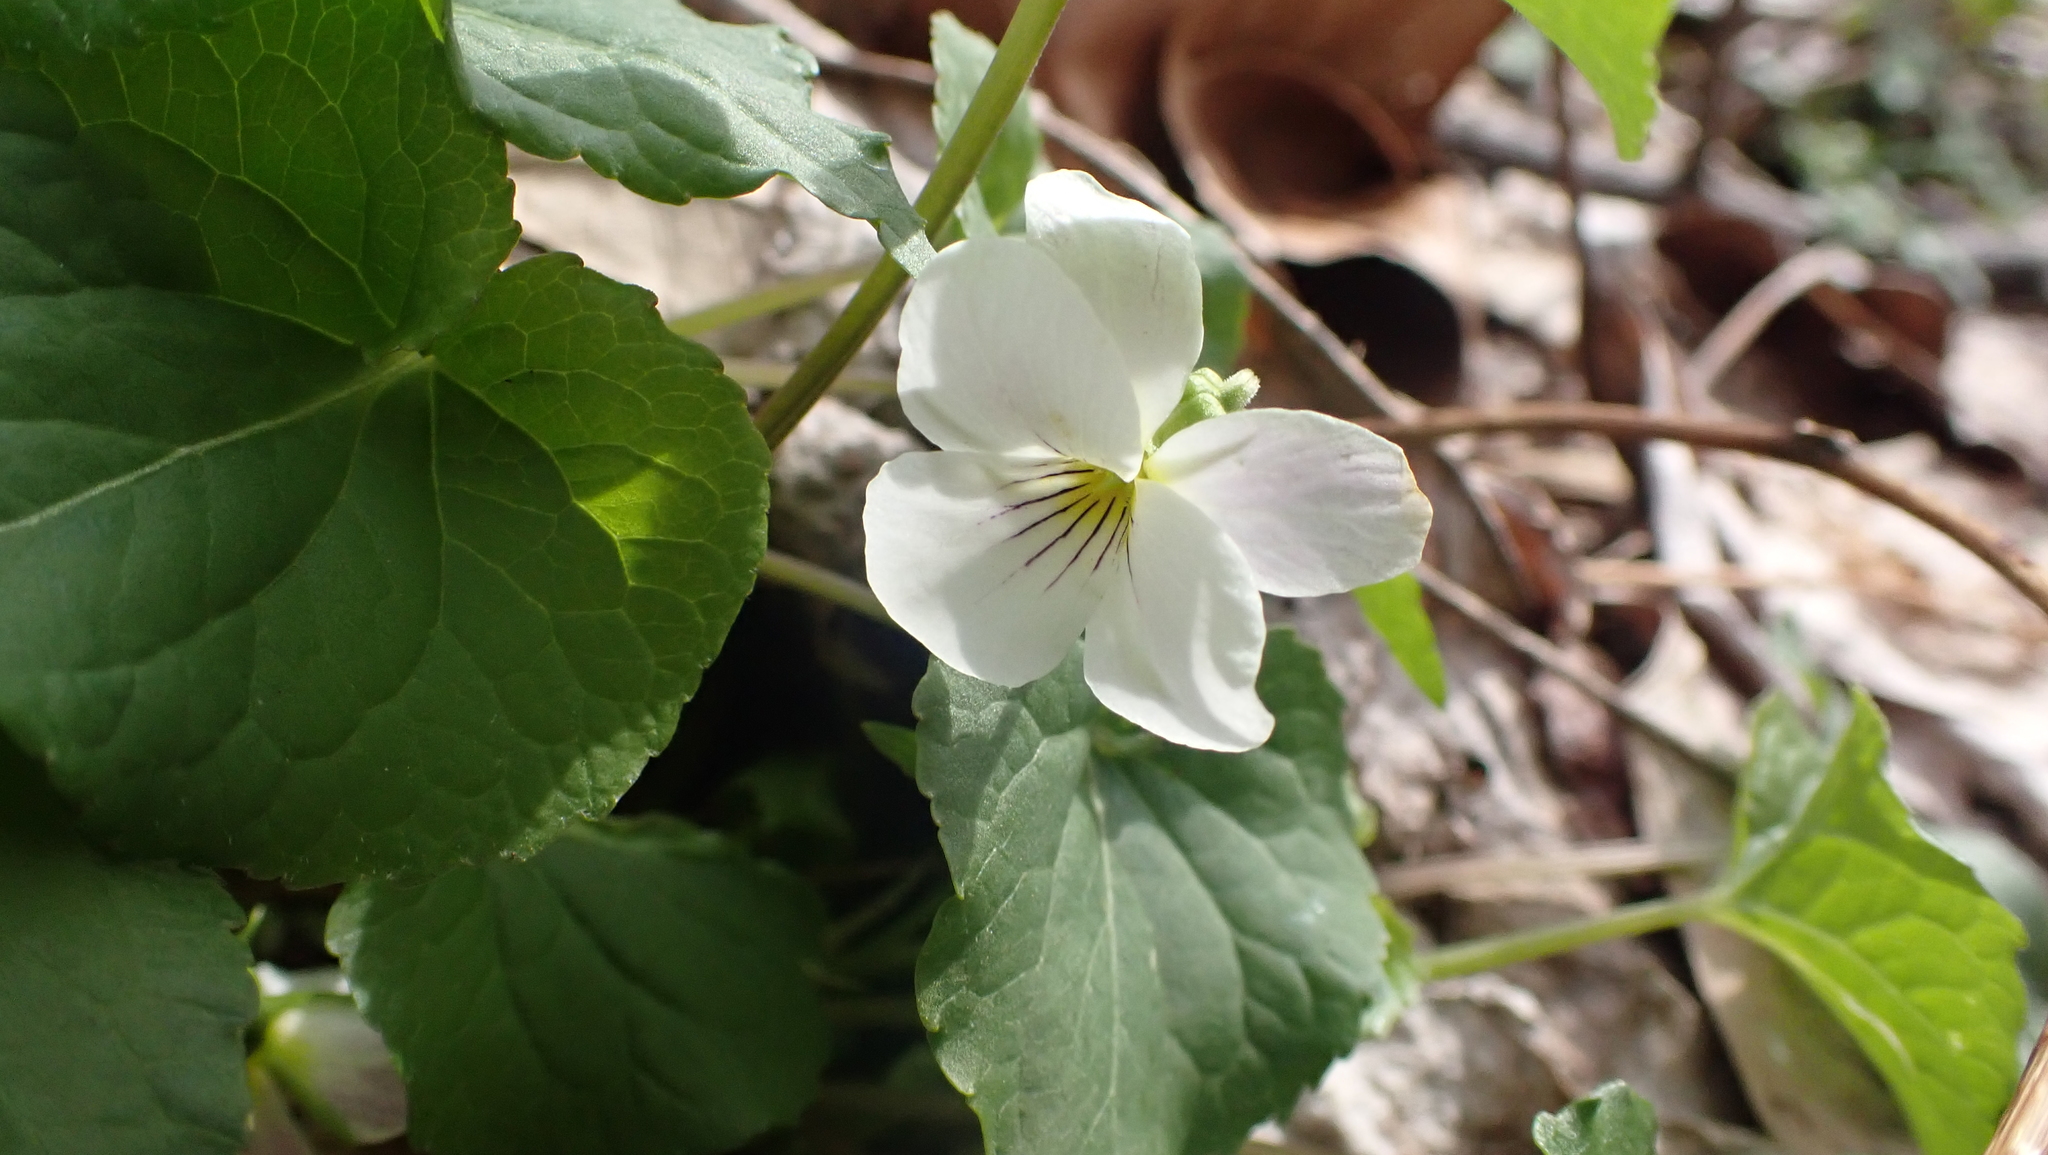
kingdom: Plantae
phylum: Tracheophyta
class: Magnoliopsida
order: Malpighiales
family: Violaceae
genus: Viola
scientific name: Viola canadensis
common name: Canada violet
